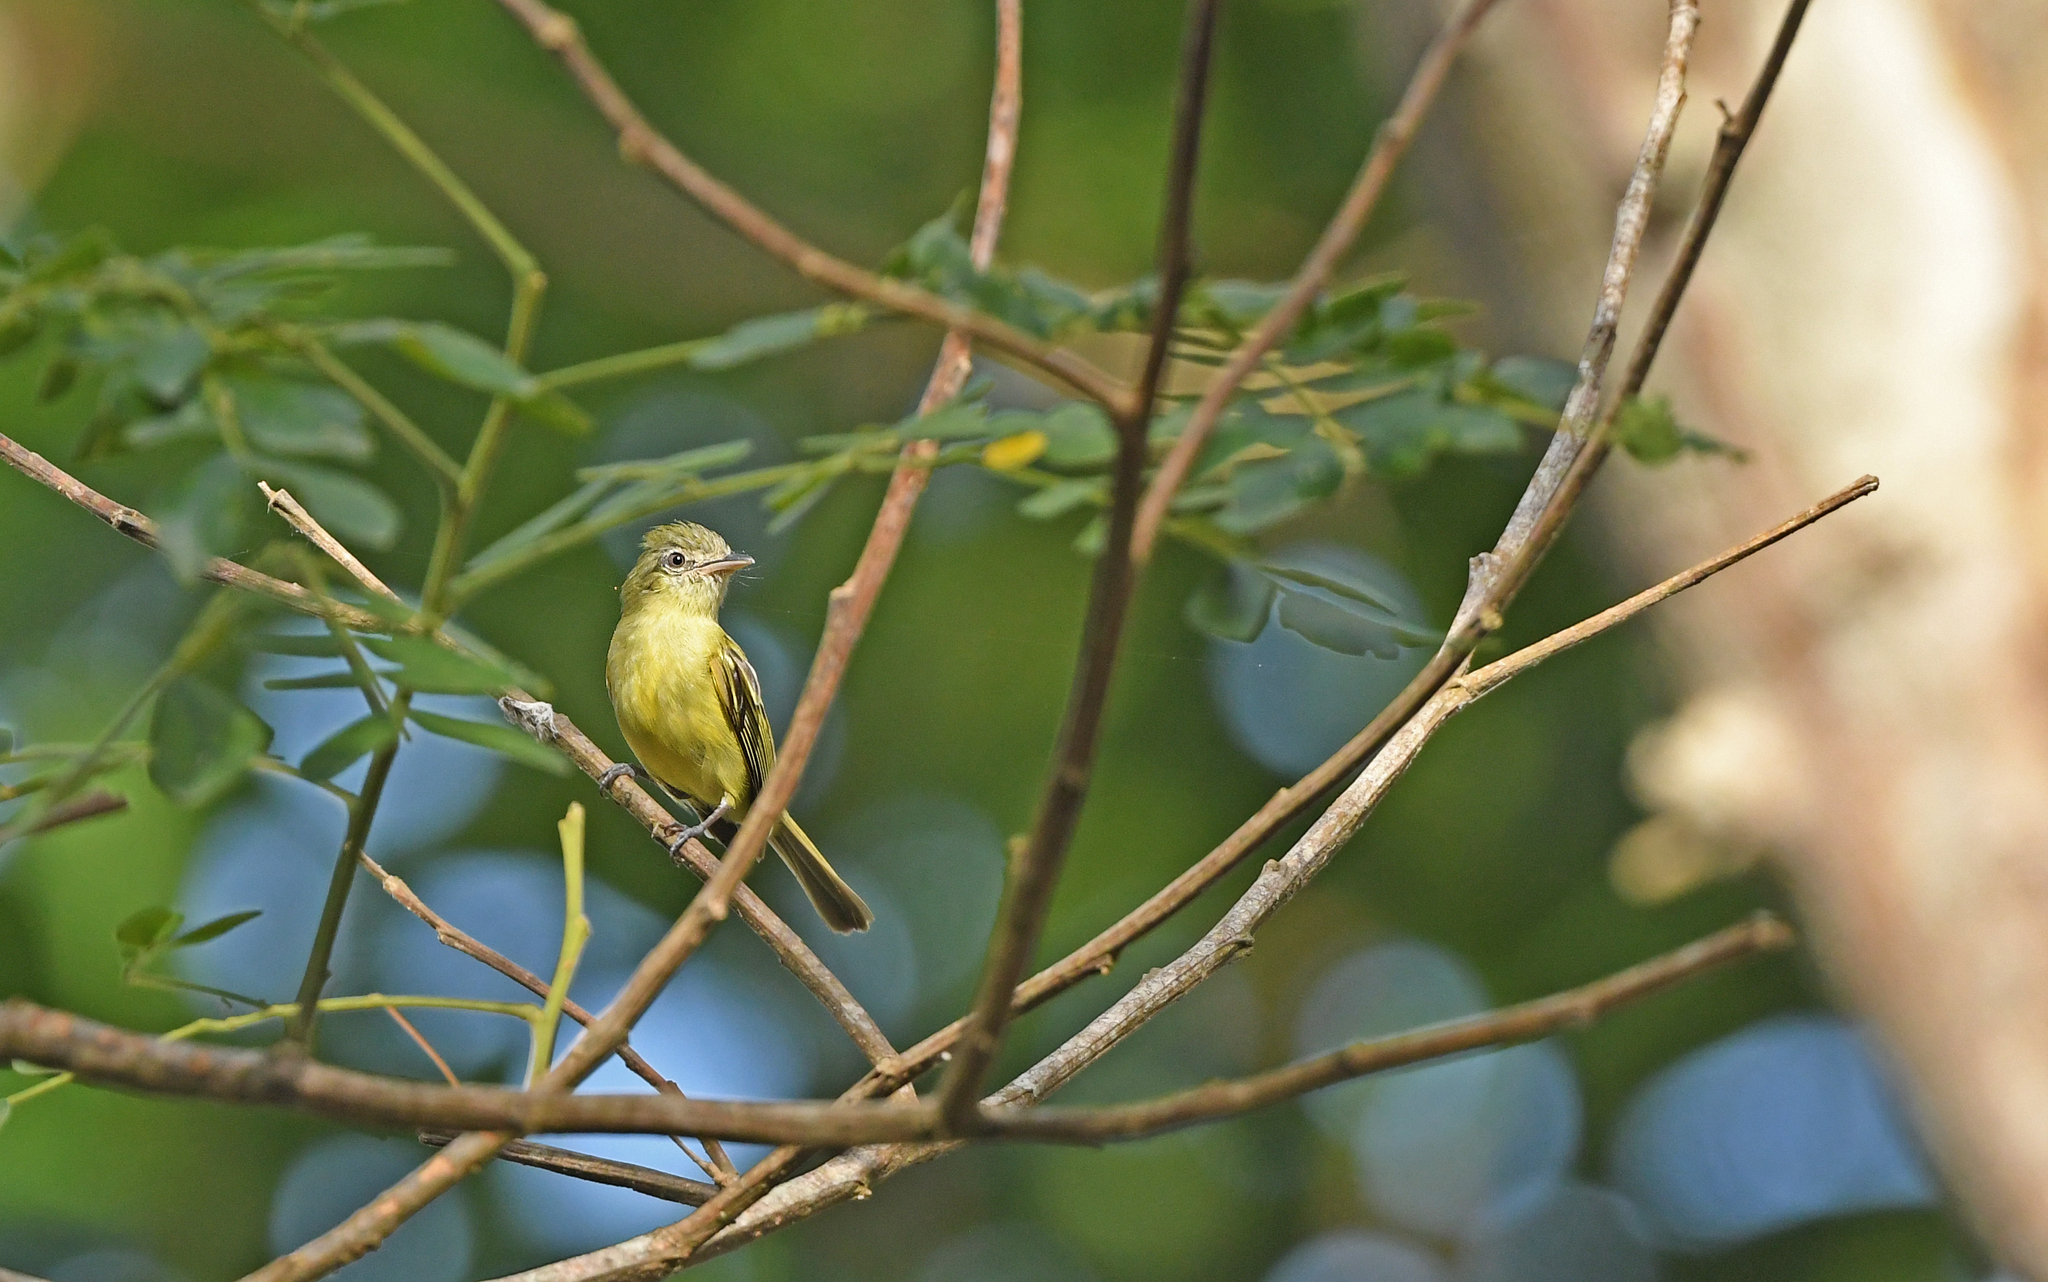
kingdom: Animalia
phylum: Chordata
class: Aves
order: Passeriformes
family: Tyrannidae
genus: Tolmomyias
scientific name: Tolmomyias flaviventris
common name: Ochre-lored flatbill
